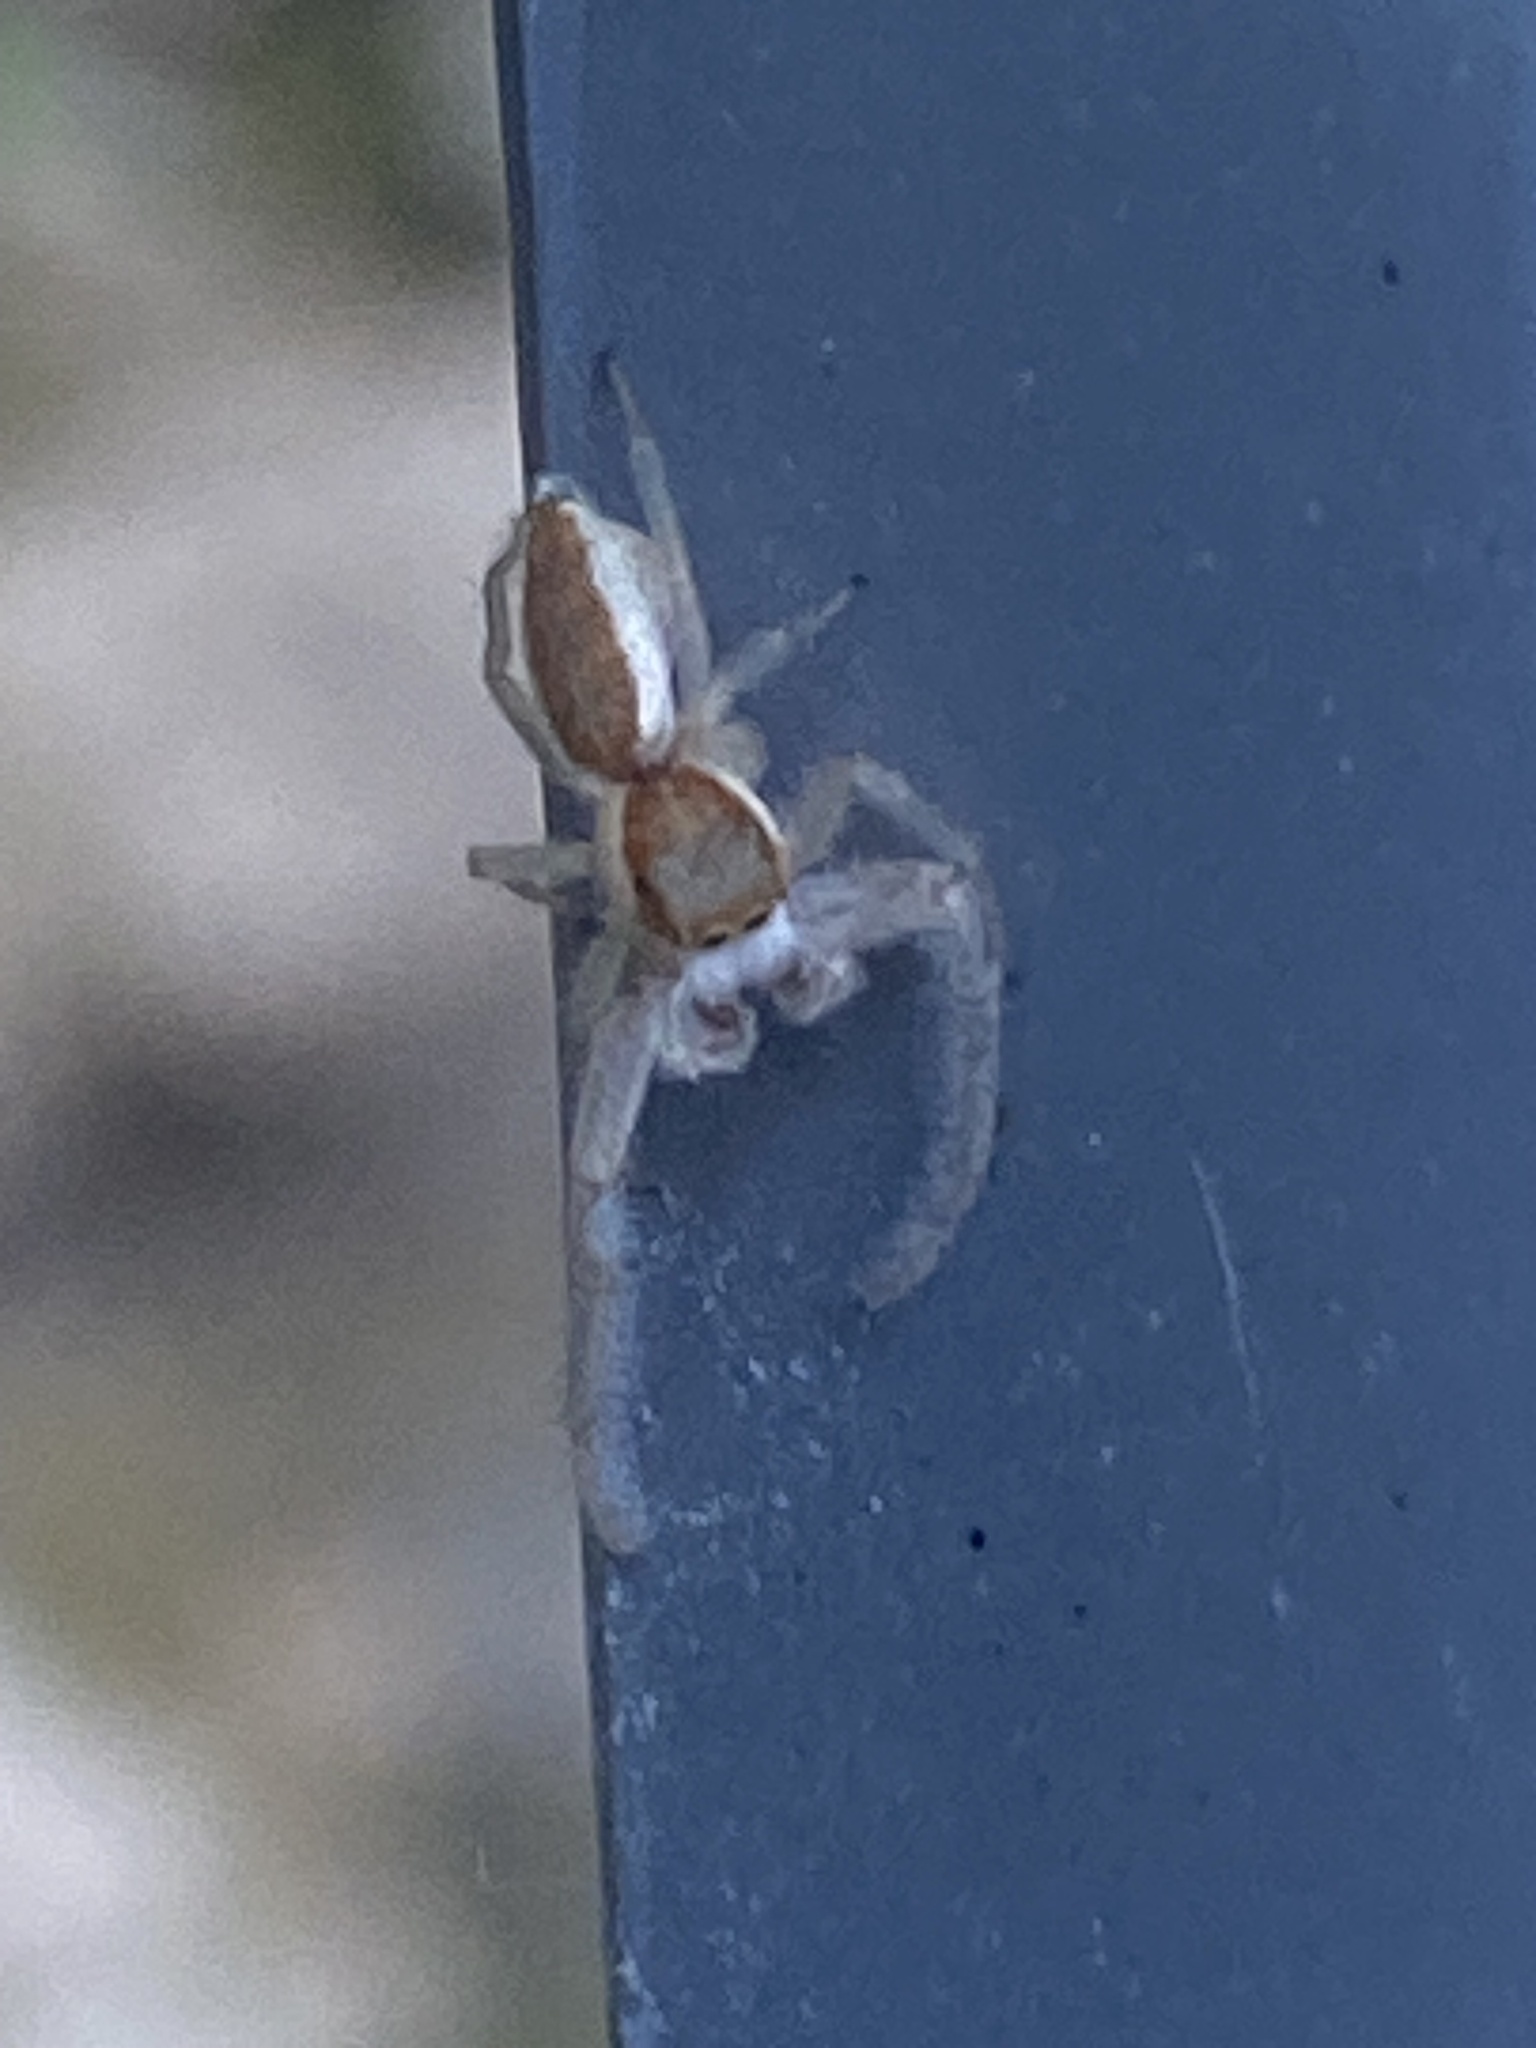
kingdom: Animalia
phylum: Arthropoda
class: Arachnida
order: Araneae
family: Salticidae
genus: Hentzia
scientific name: Hentzia mitrata
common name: White-jawed jumping spider
